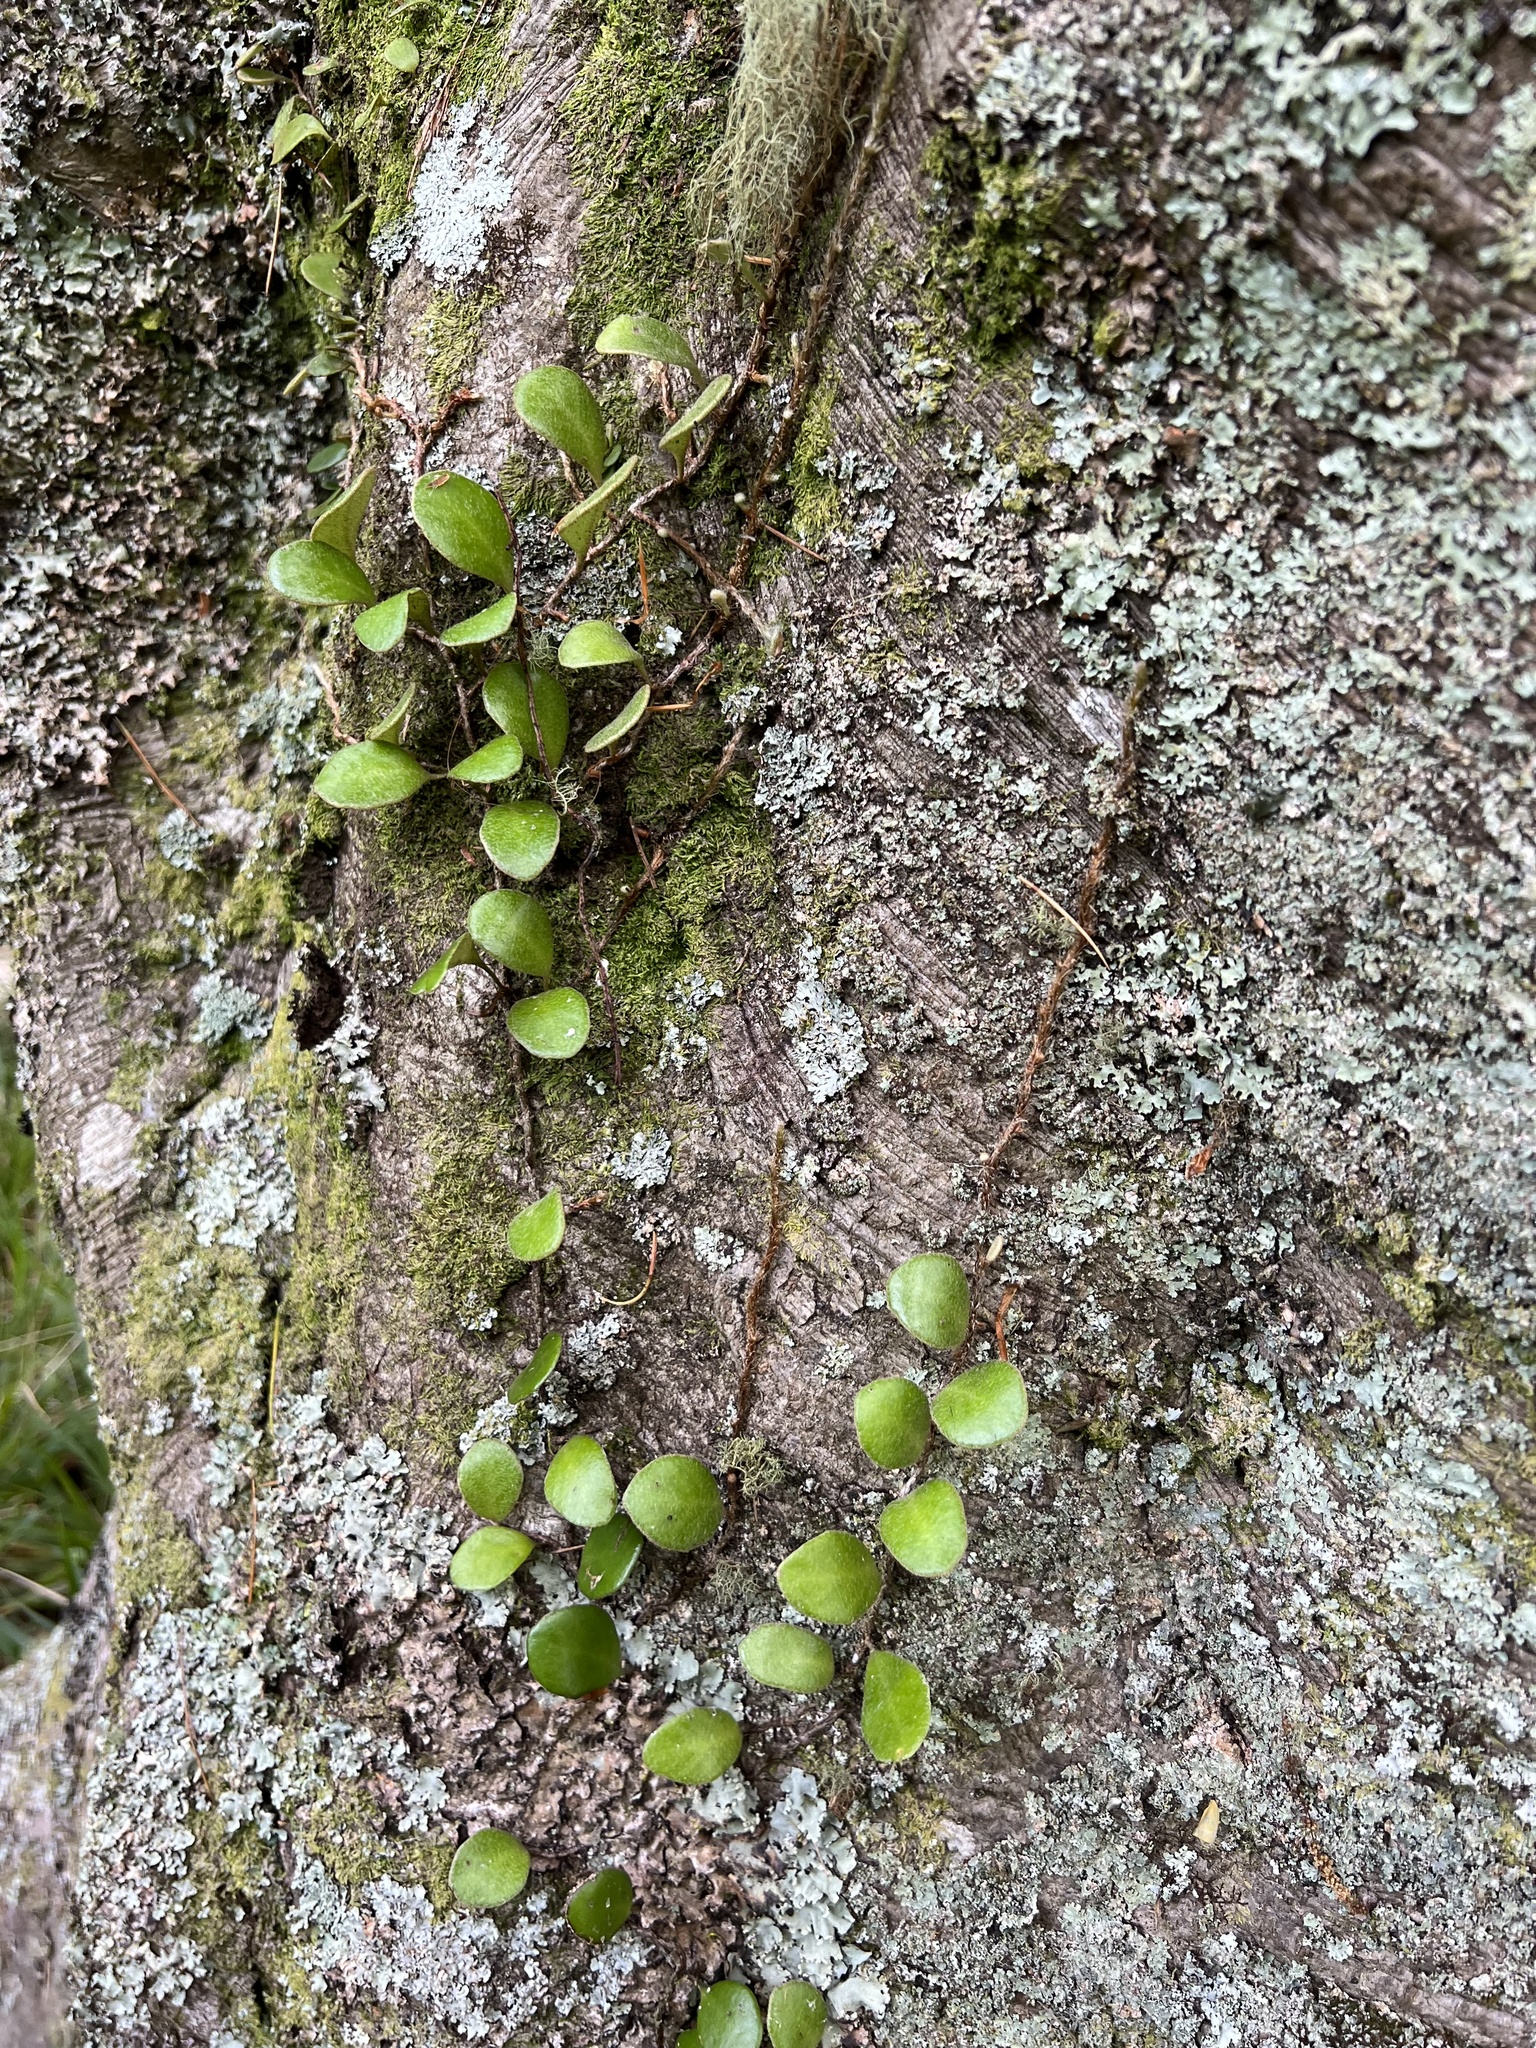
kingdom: Plantae
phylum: Tracheophyta
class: Polypodiopsida
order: Polypodiales
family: Polypodiaceae
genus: Pyrrosia
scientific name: Pyrrosia eleagnifolia
